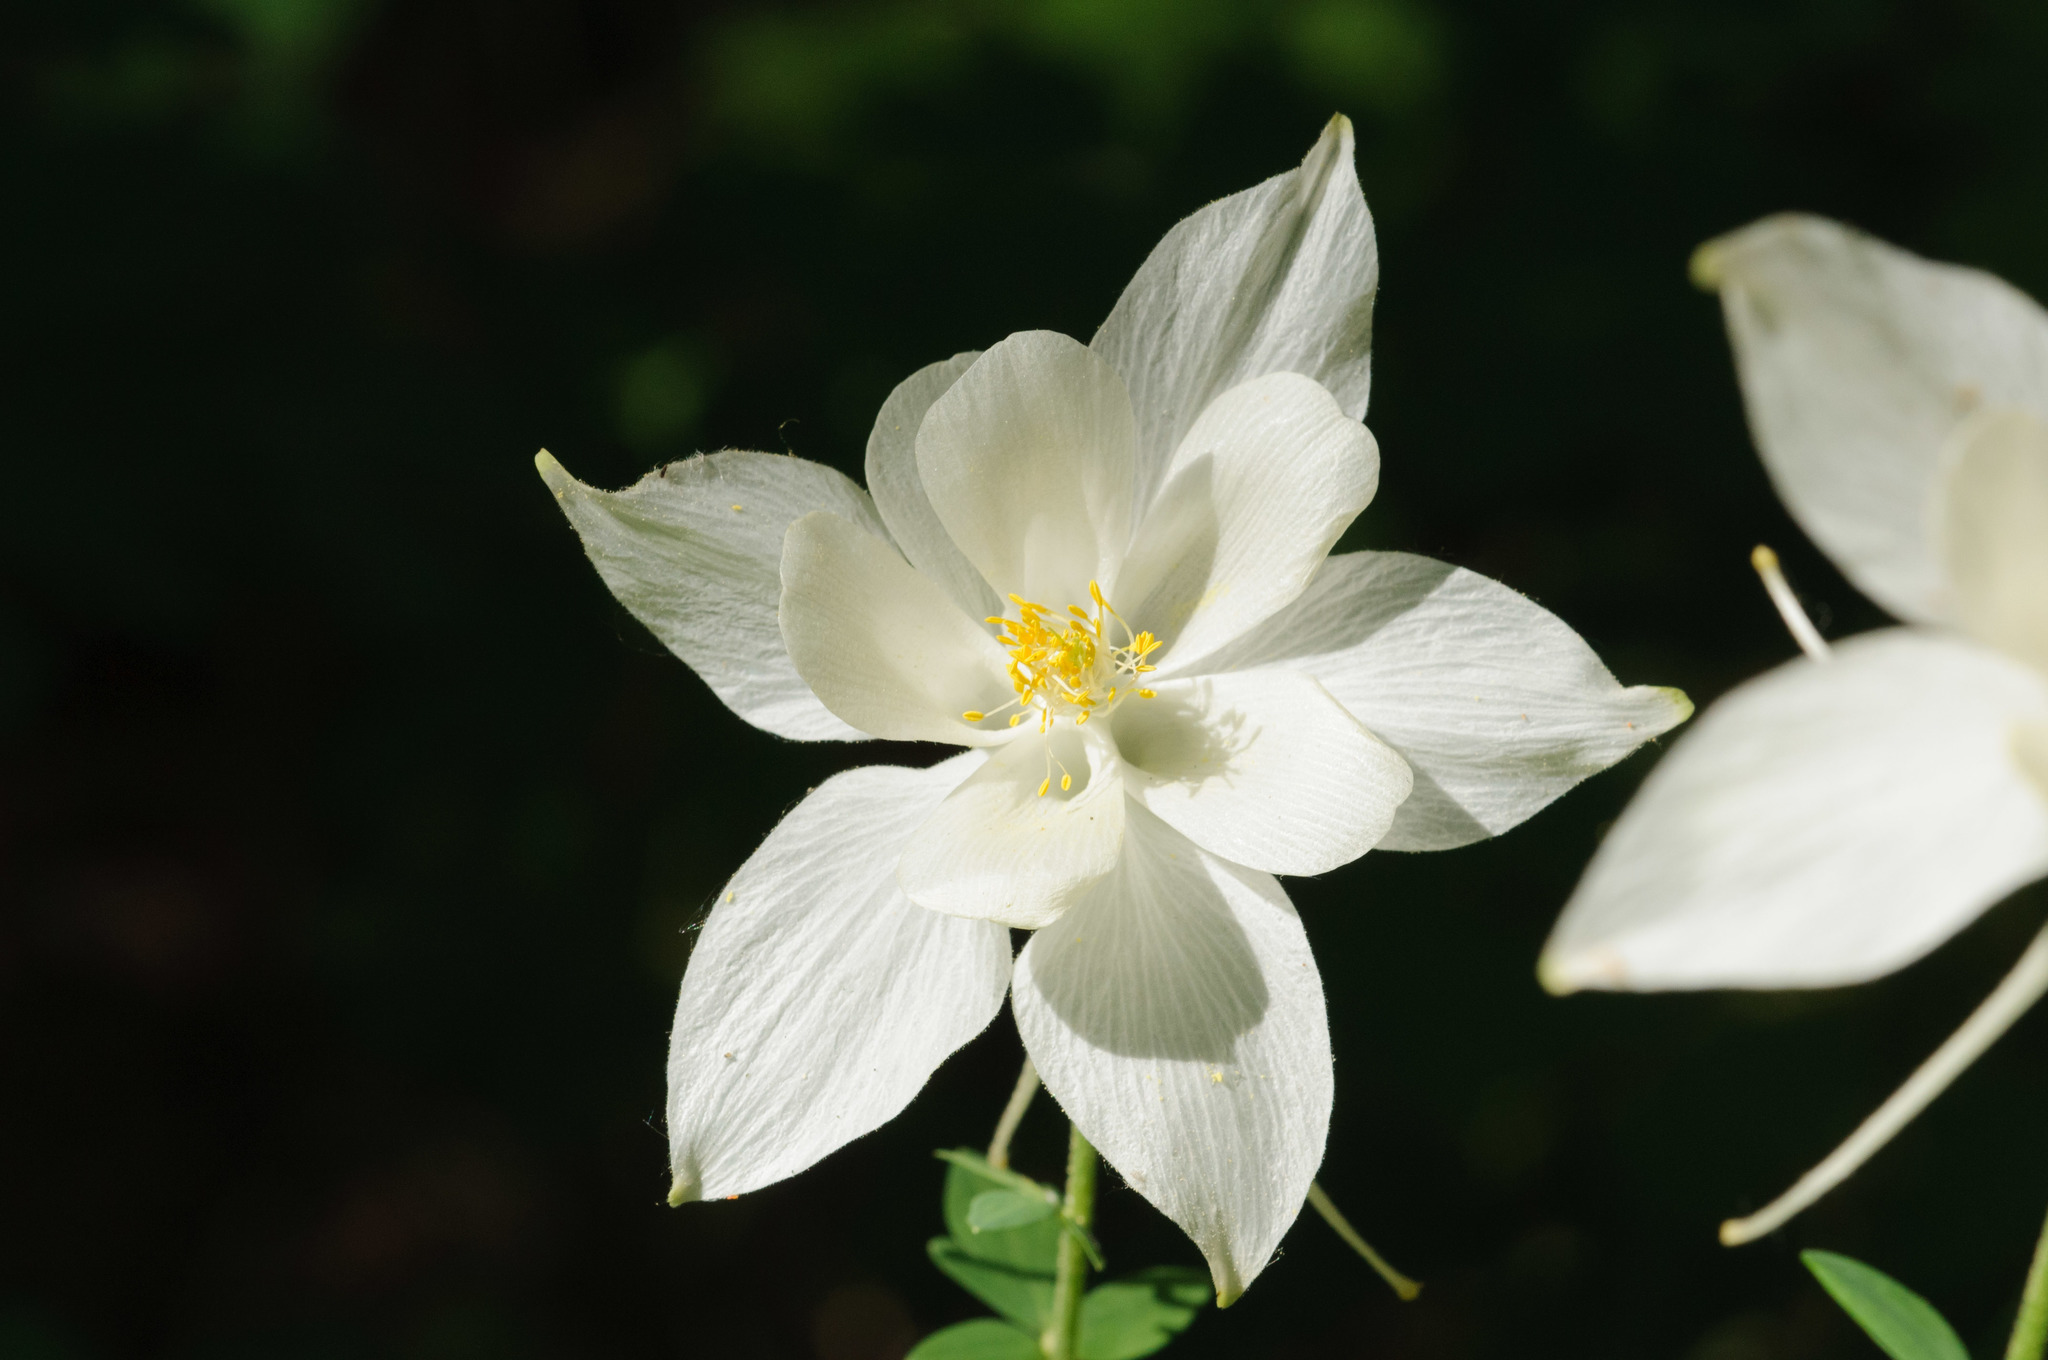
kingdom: Plantae
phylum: Tracheophyta
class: Magnoliopsida
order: Ranunculales
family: Ranunculaceae
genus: Aquilegia
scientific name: Aquilegia coerulea
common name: Rocky mountain columbine
